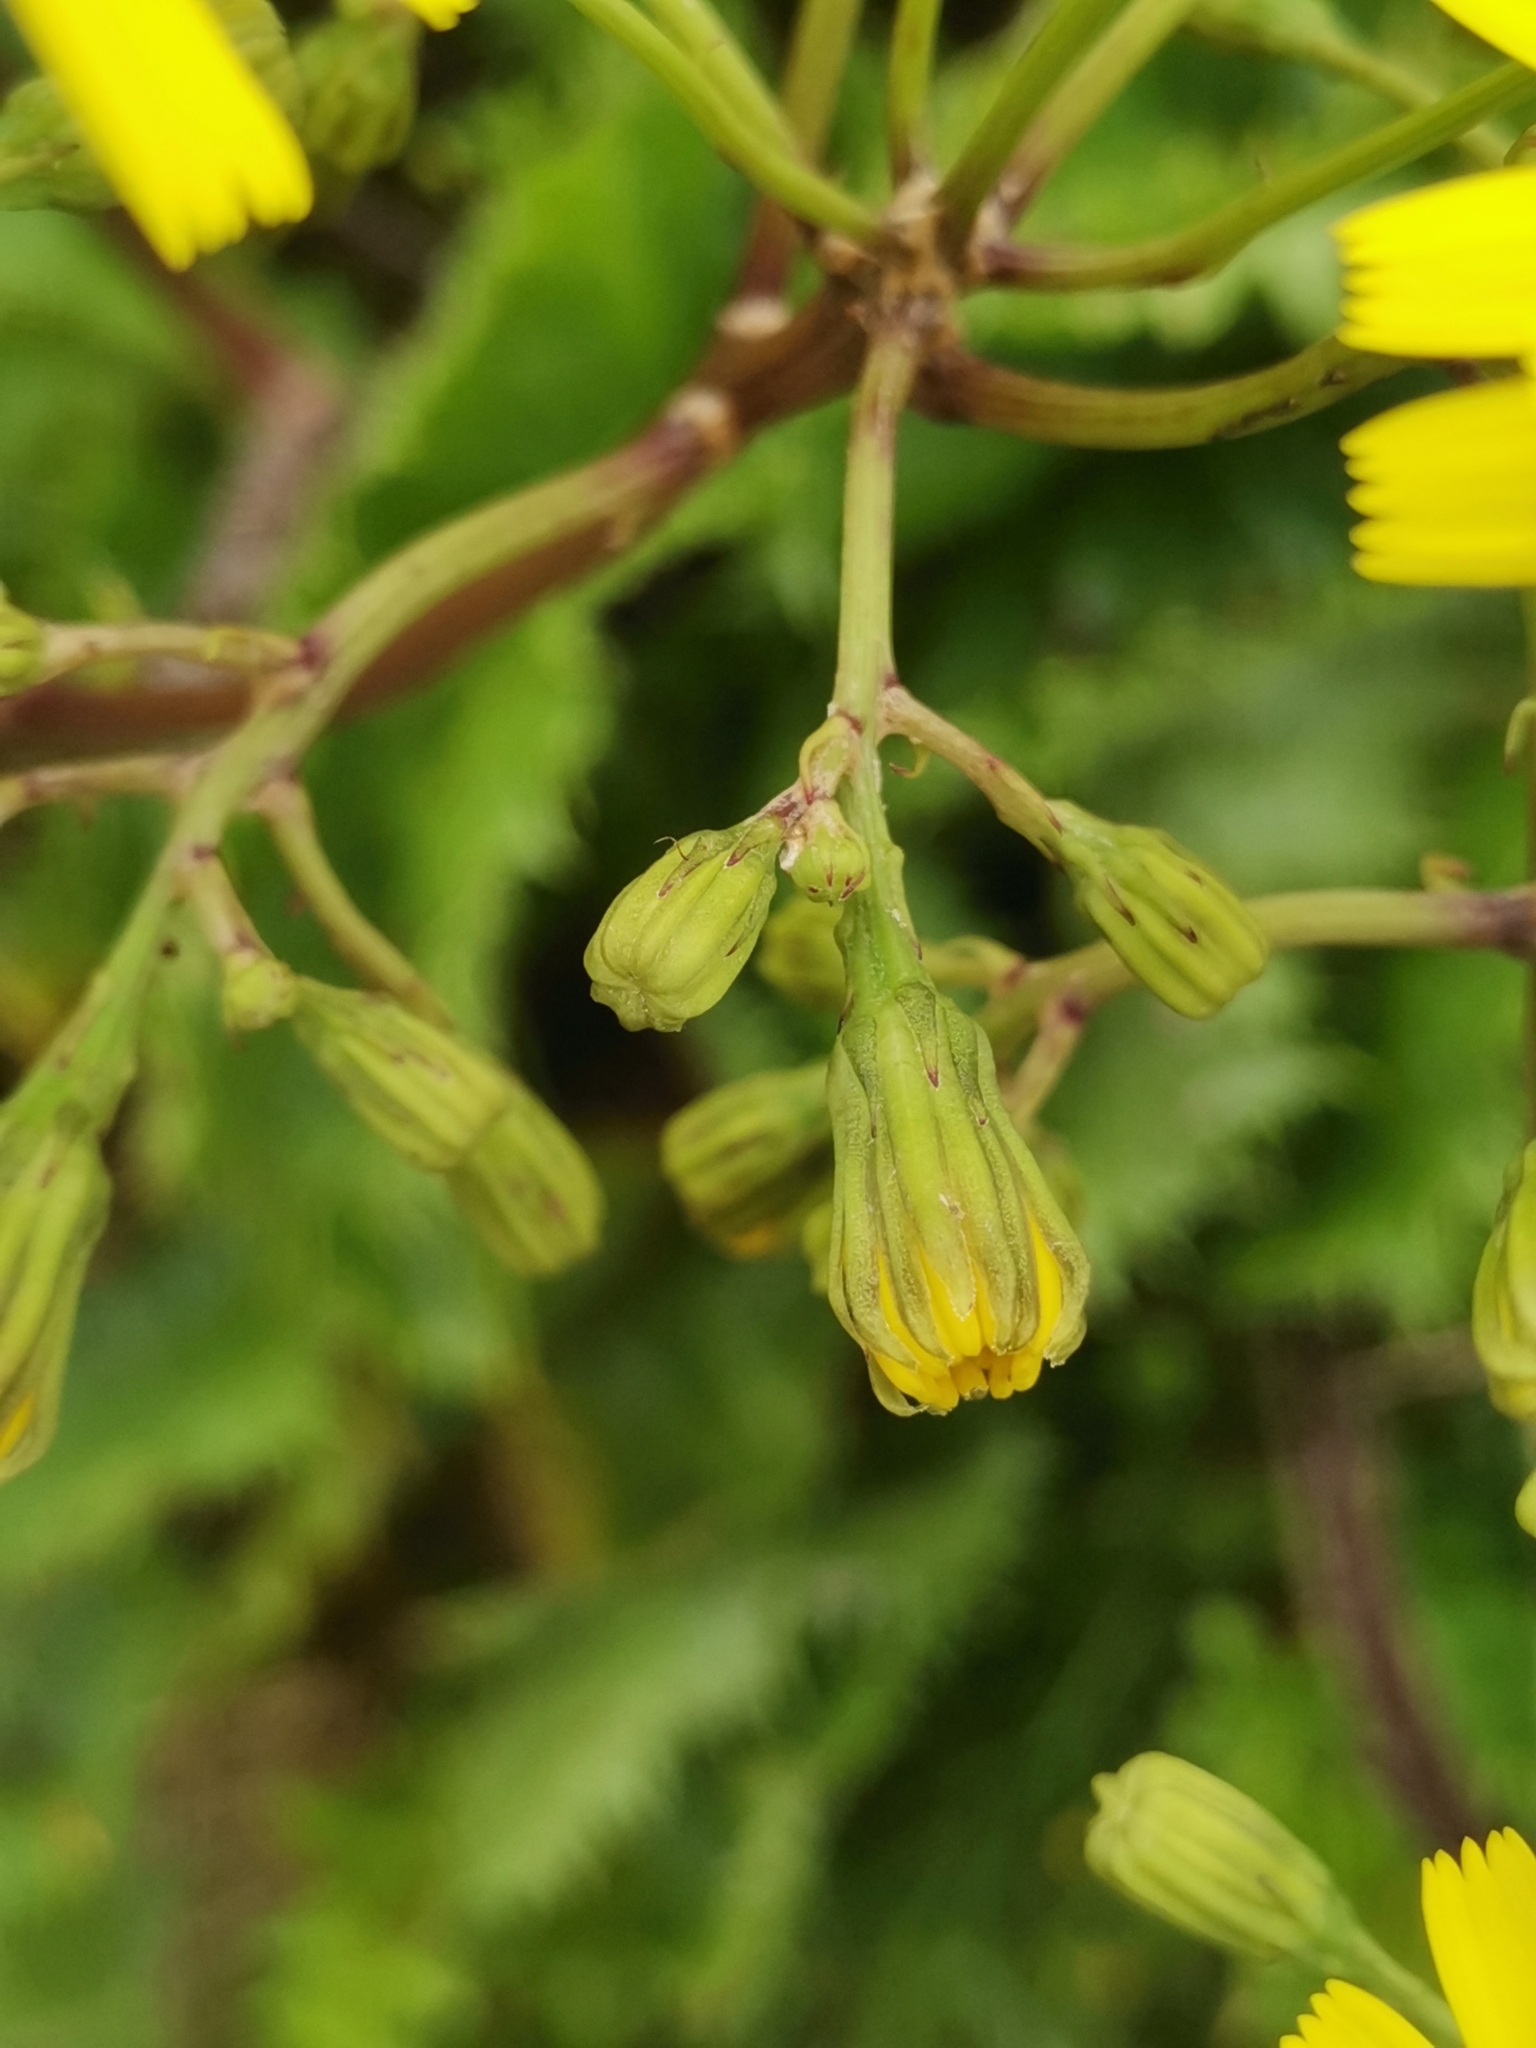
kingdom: Plantae
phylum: Tracheophyta
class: Magnoliopsida
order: Asterales
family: Asteraceae
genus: Leontodon
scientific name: Leontodon rigens
